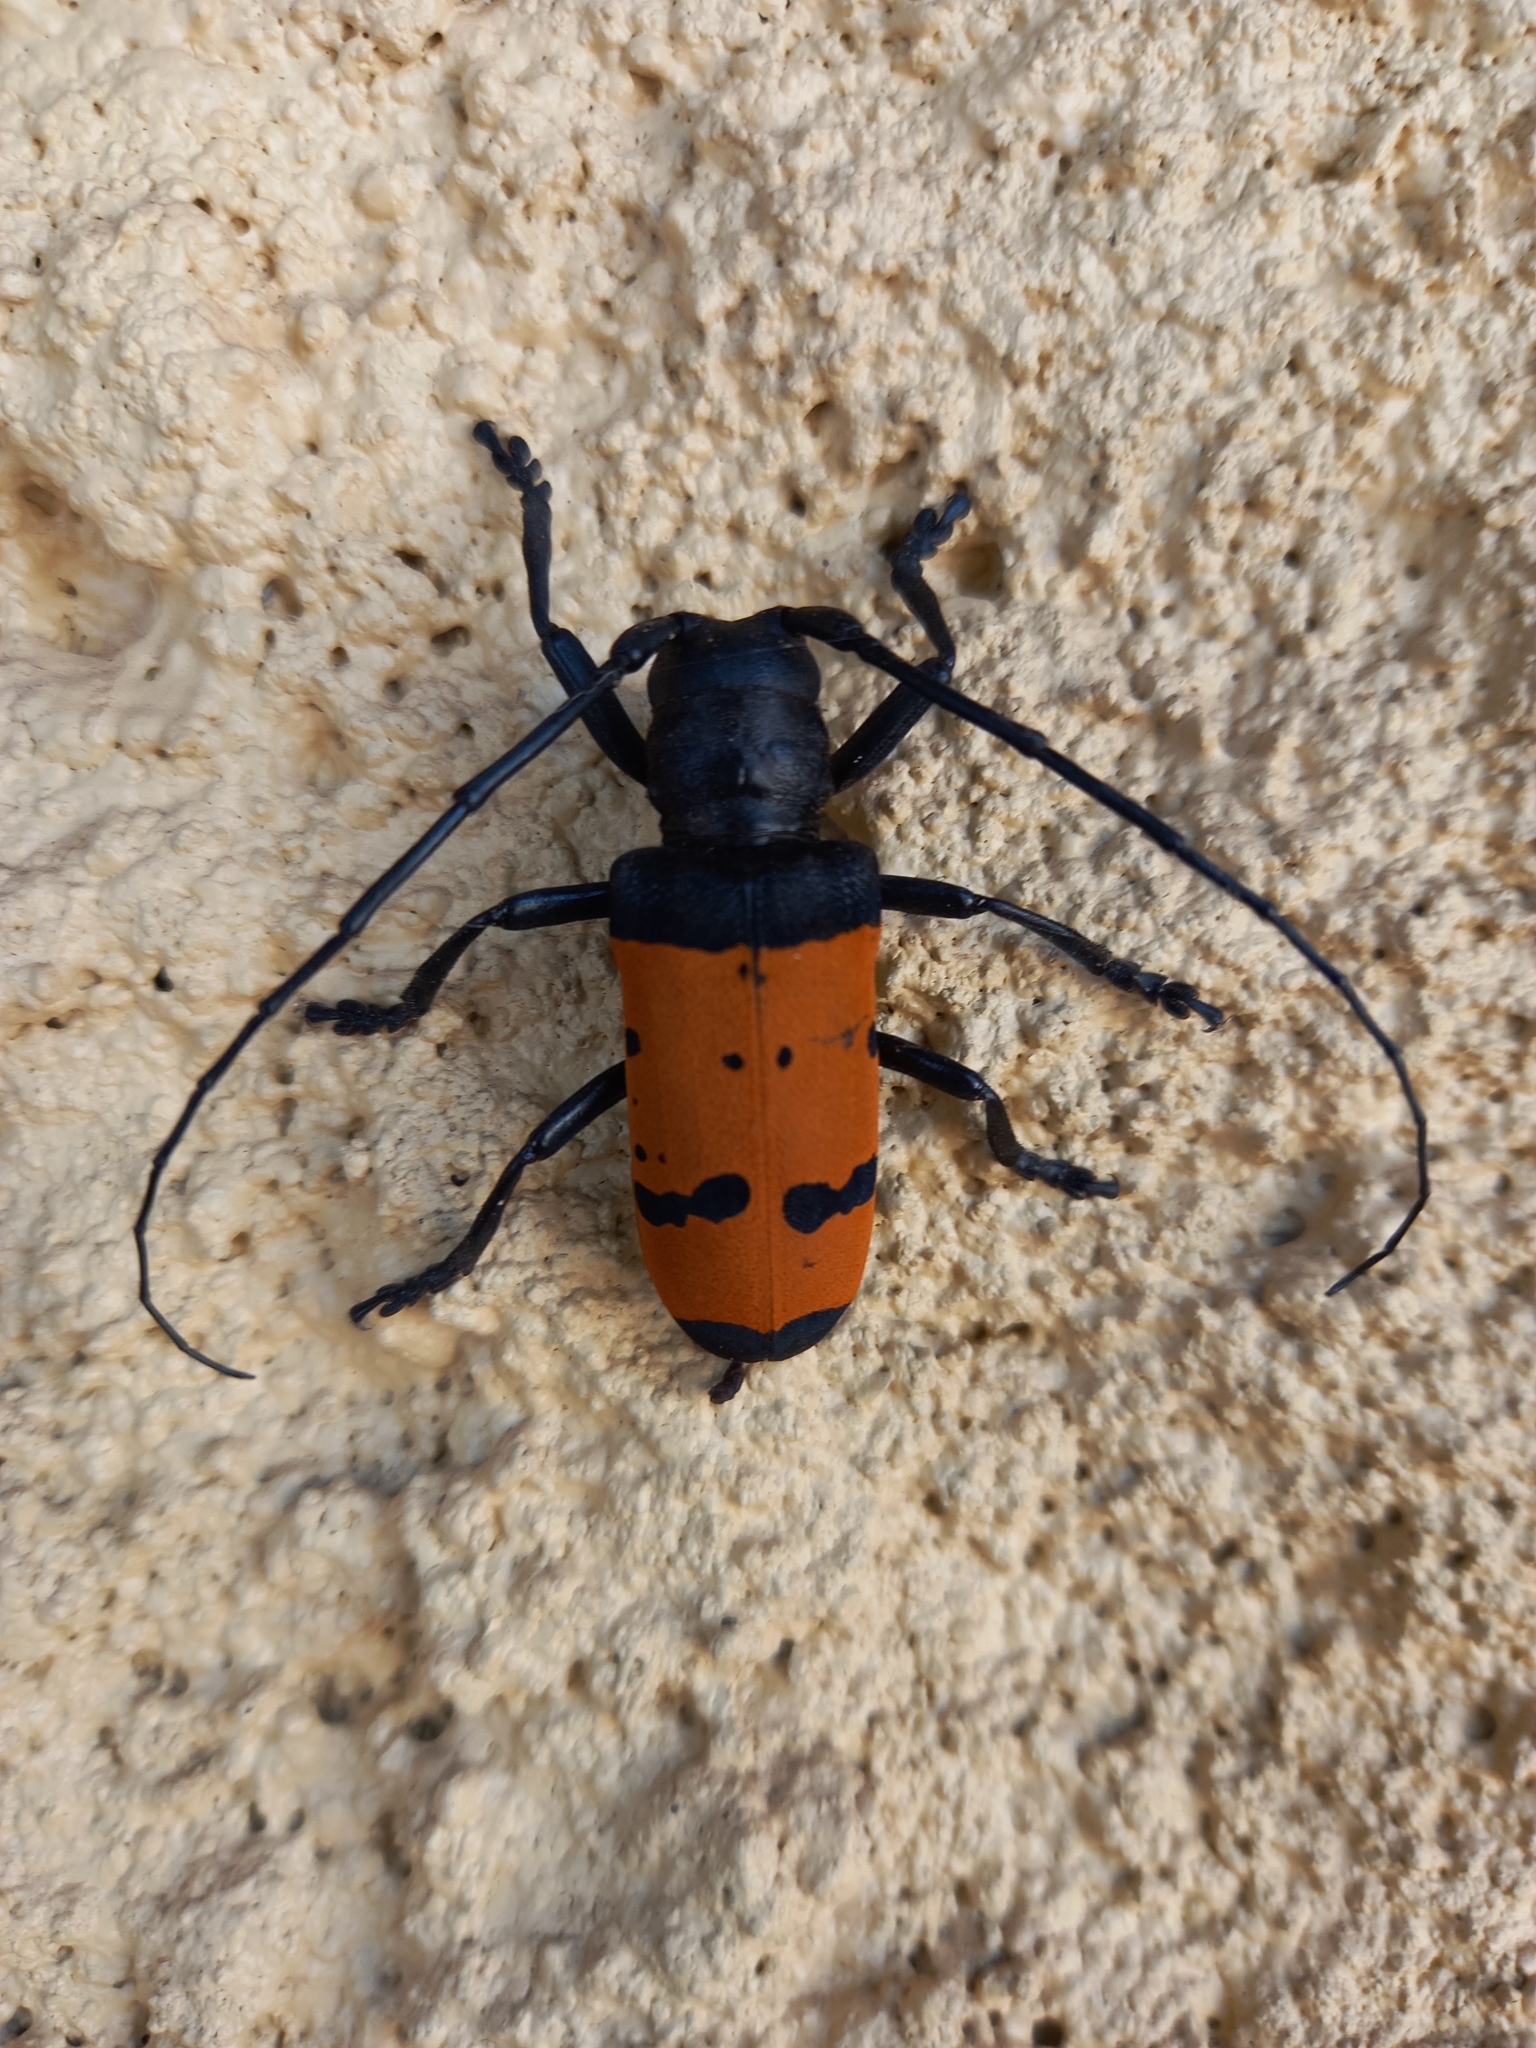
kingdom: Animalia
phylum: Arthropoda
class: Insecta
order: Coleoptera
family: Cerambycidae
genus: Diastocera
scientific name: Diastocera trifasciata
